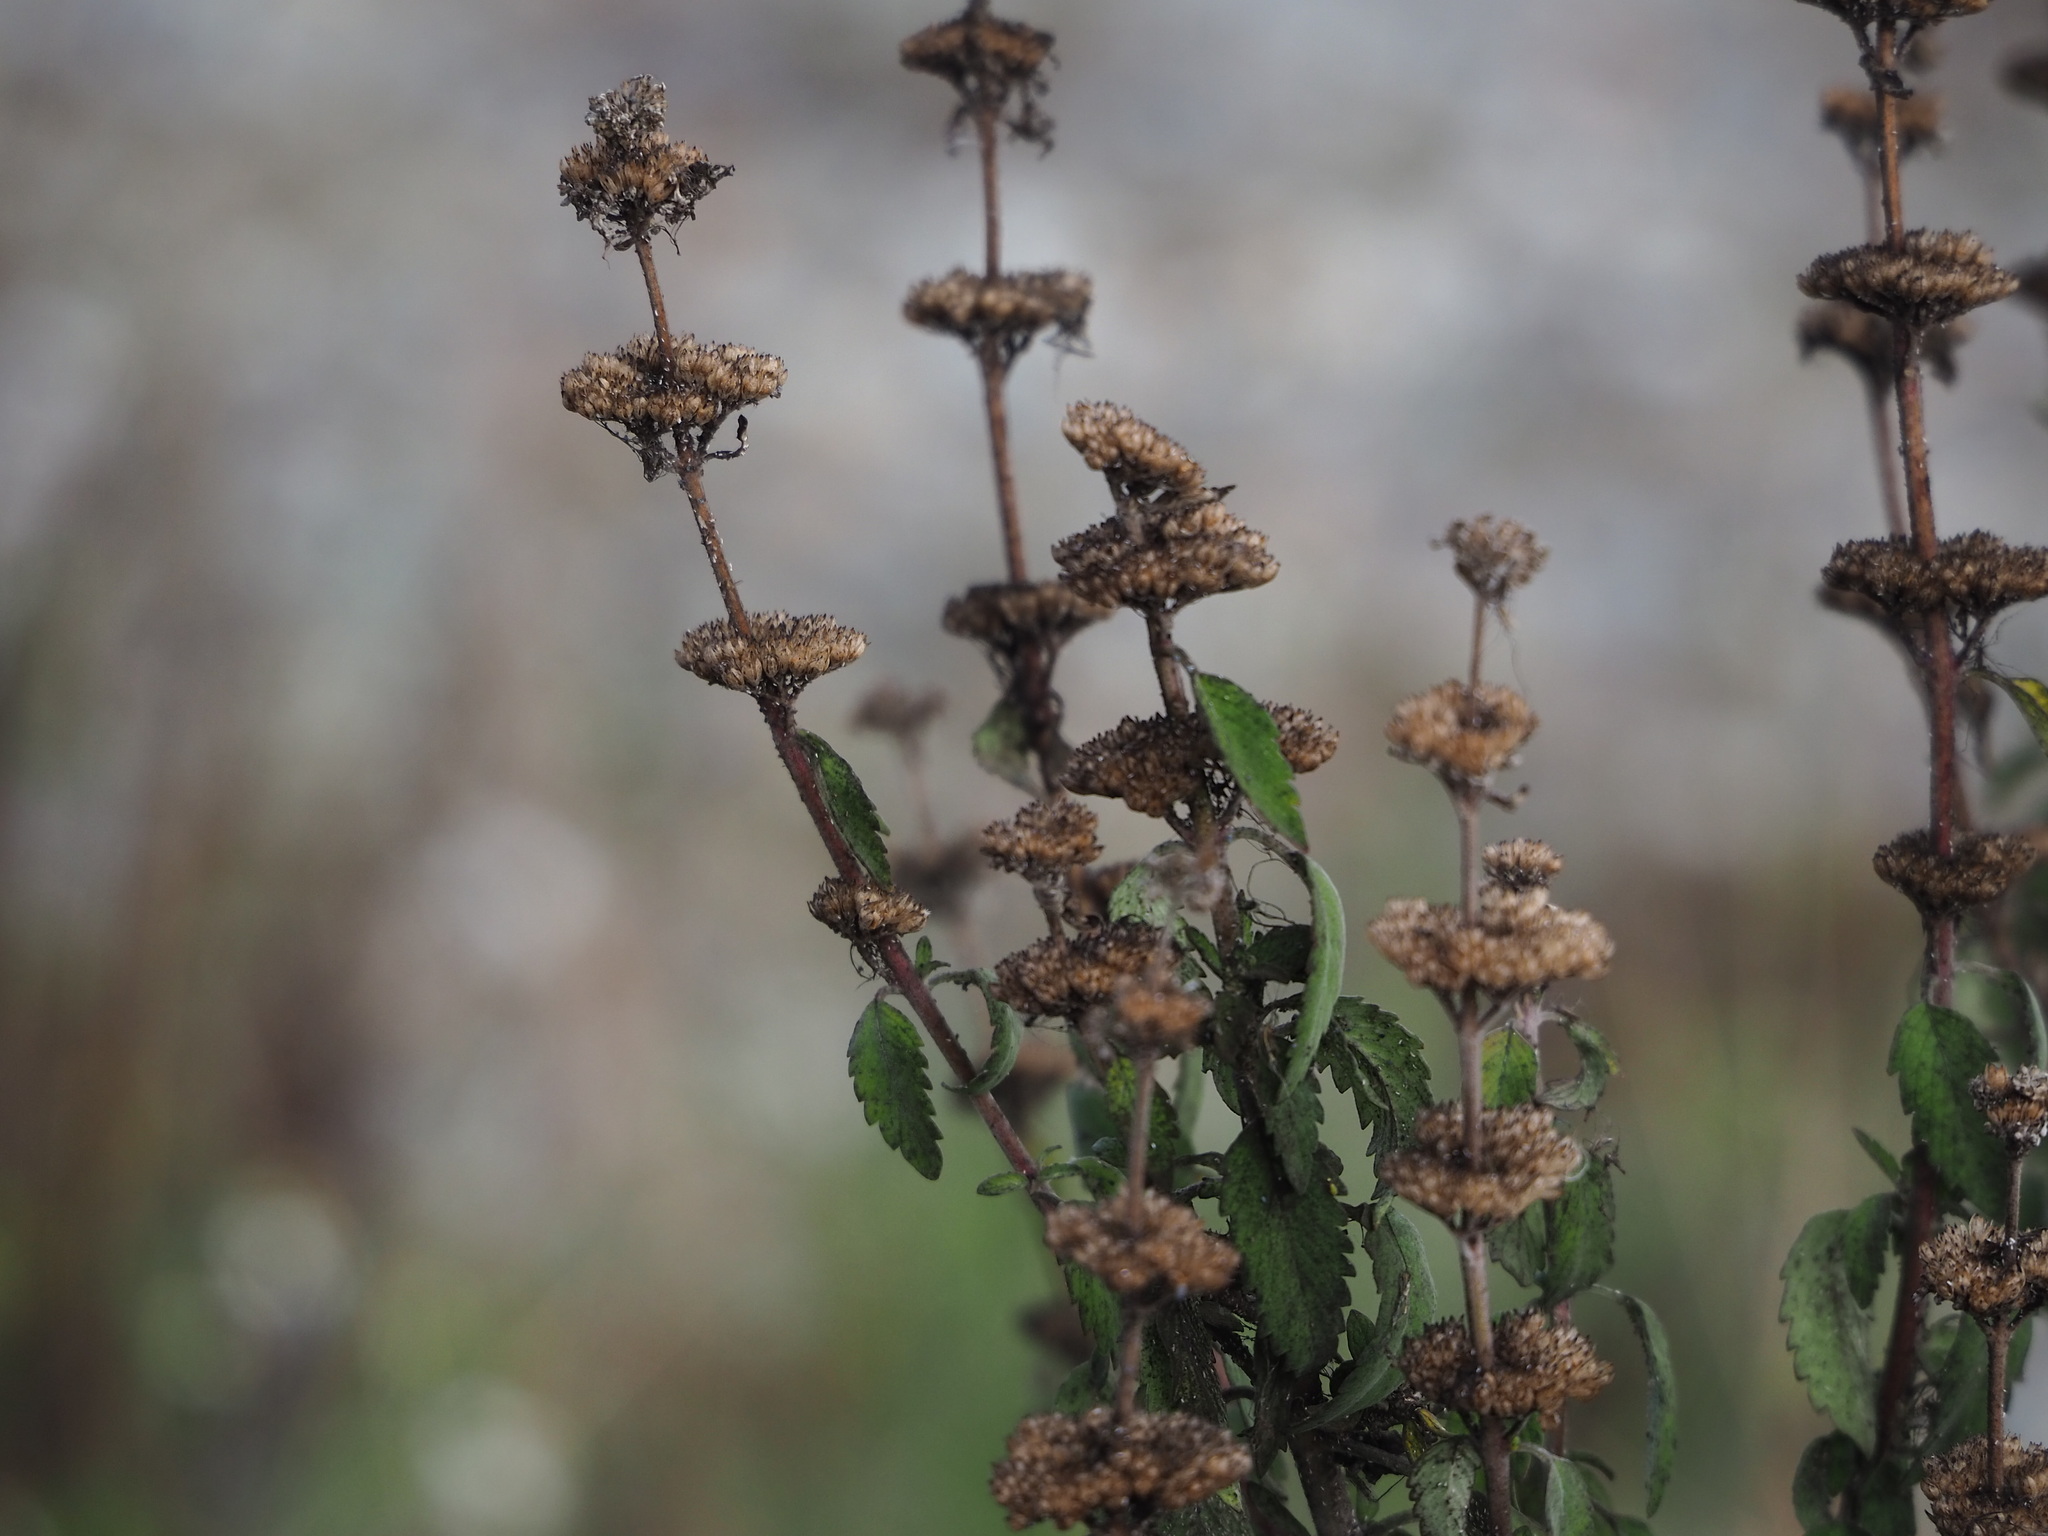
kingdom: Plantae
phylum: Tracheophyta
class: Magnoliopsida
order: Lamiales
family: Lamiaceae
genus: Caryopteris
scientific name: Caryopteris incana
